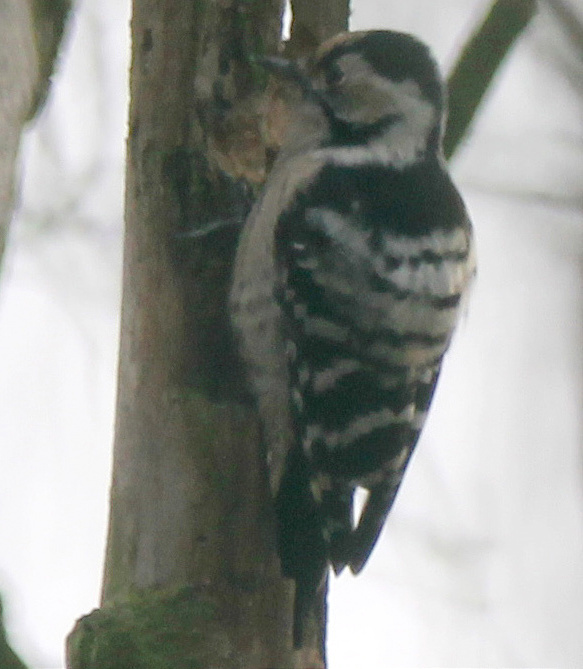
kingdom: Animalia
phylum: Chordata
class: Aves
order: Piciformes
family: Picidae
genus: Dryobates
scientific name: Dryobates minor
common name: Lesser spotted woodpecker
